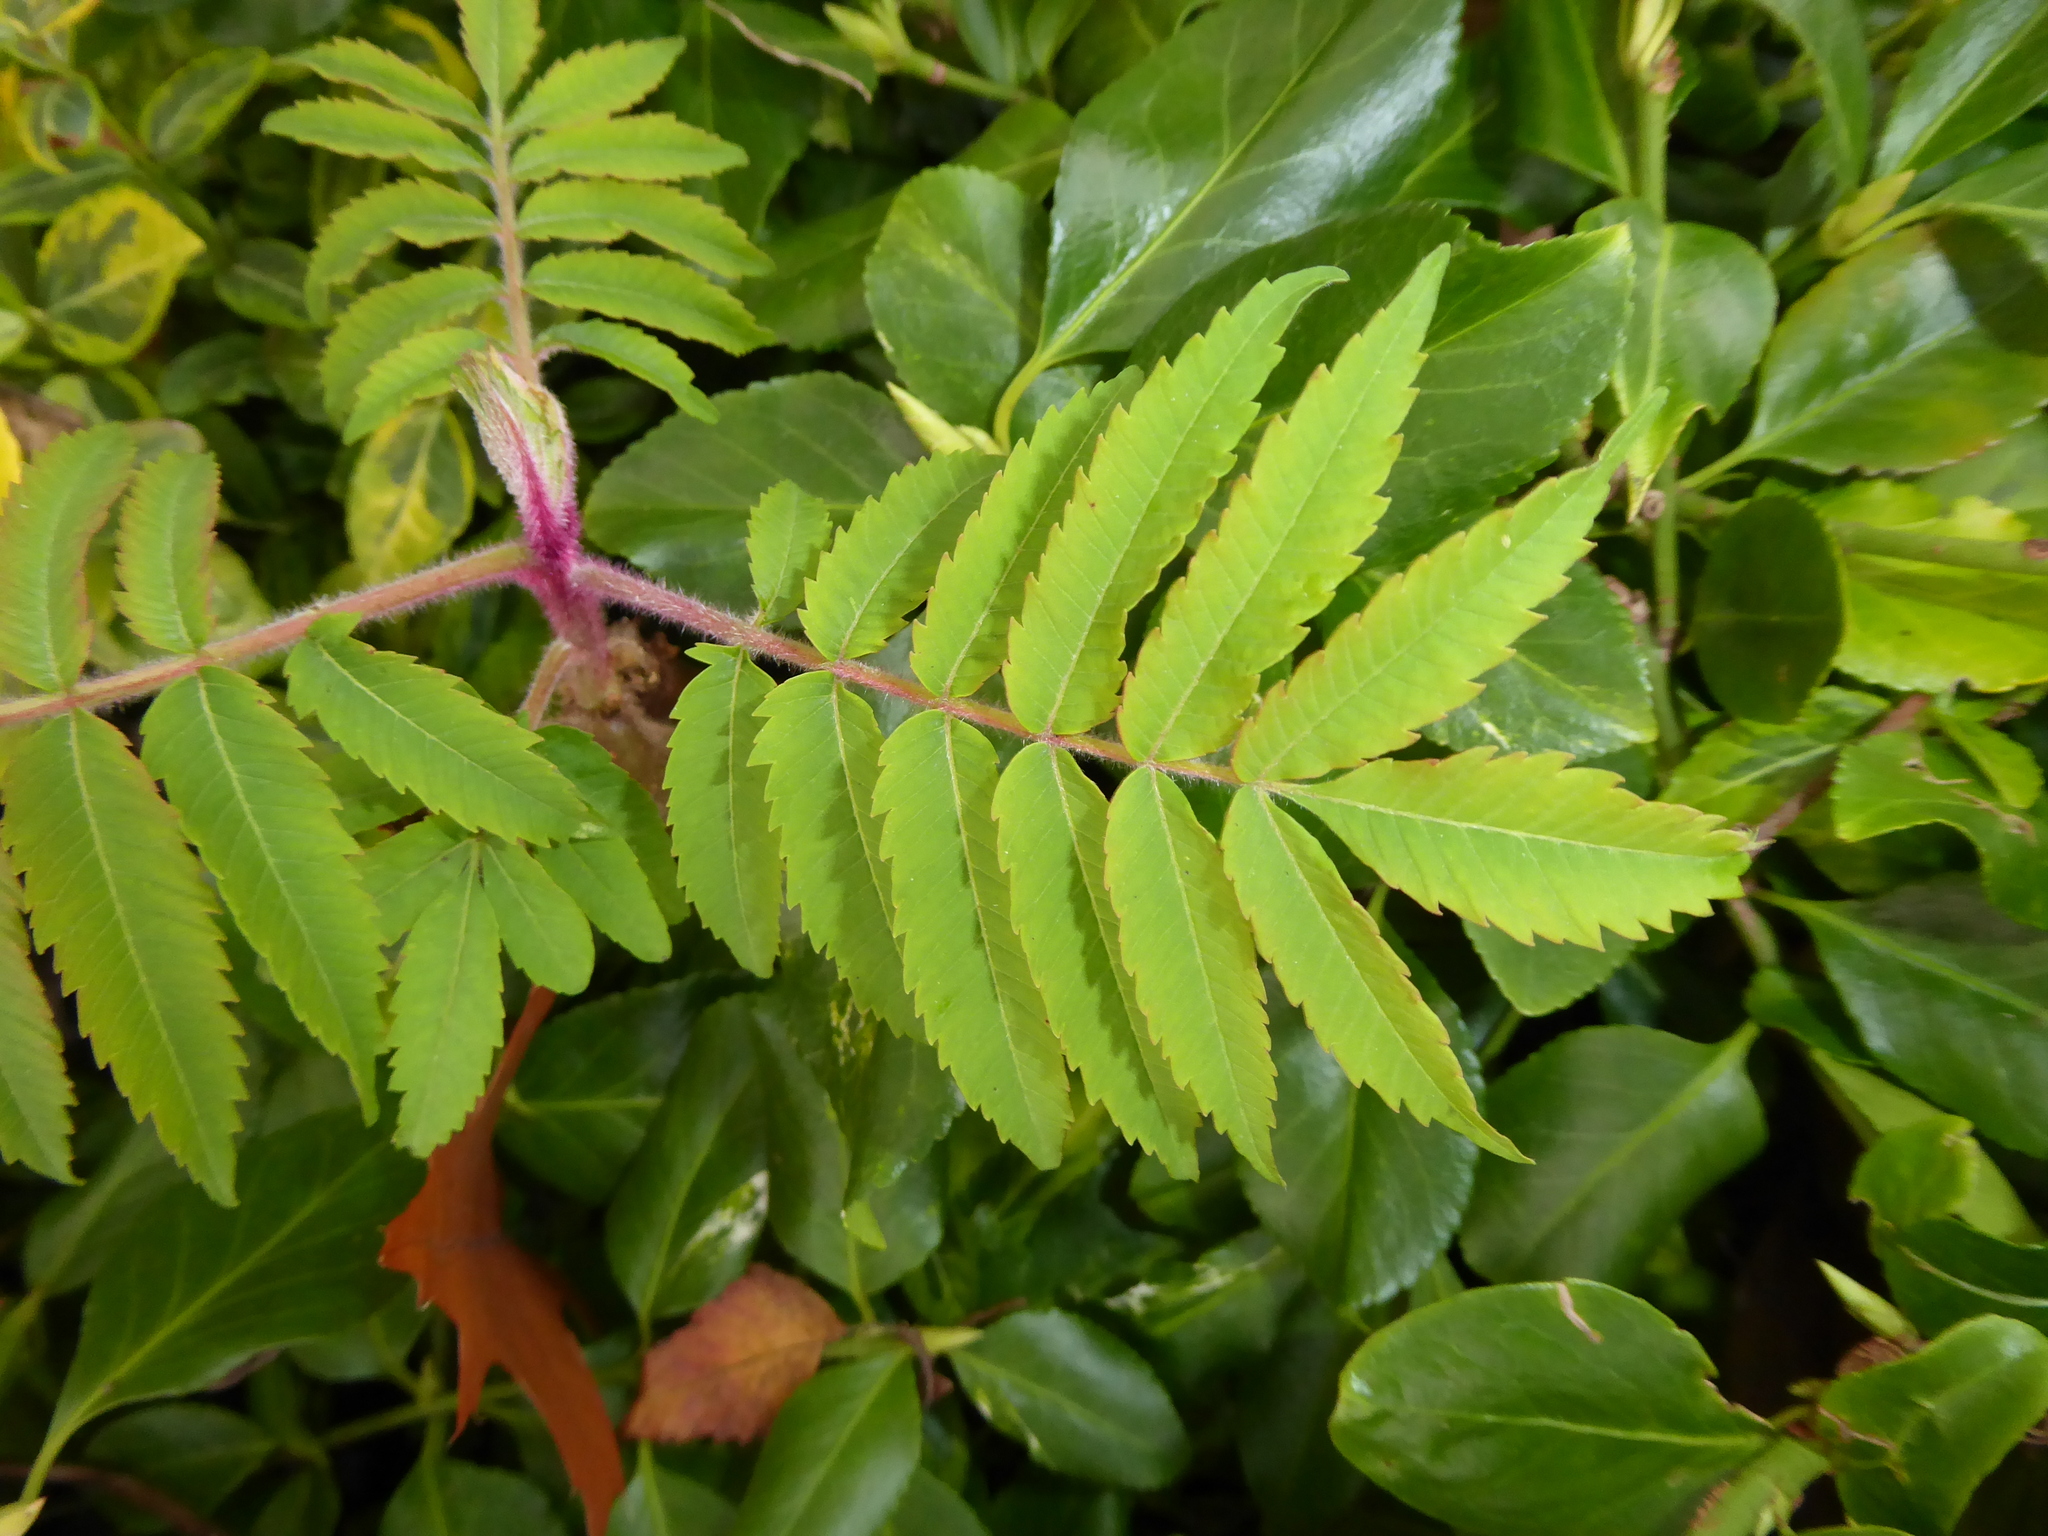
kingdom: Plantae
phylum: Tracheophyta
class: Magnoliopsida
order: Sapindales
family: Anacardiaceae
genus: Rhus
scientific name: Rhus typhina
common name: Staghorn sumac
